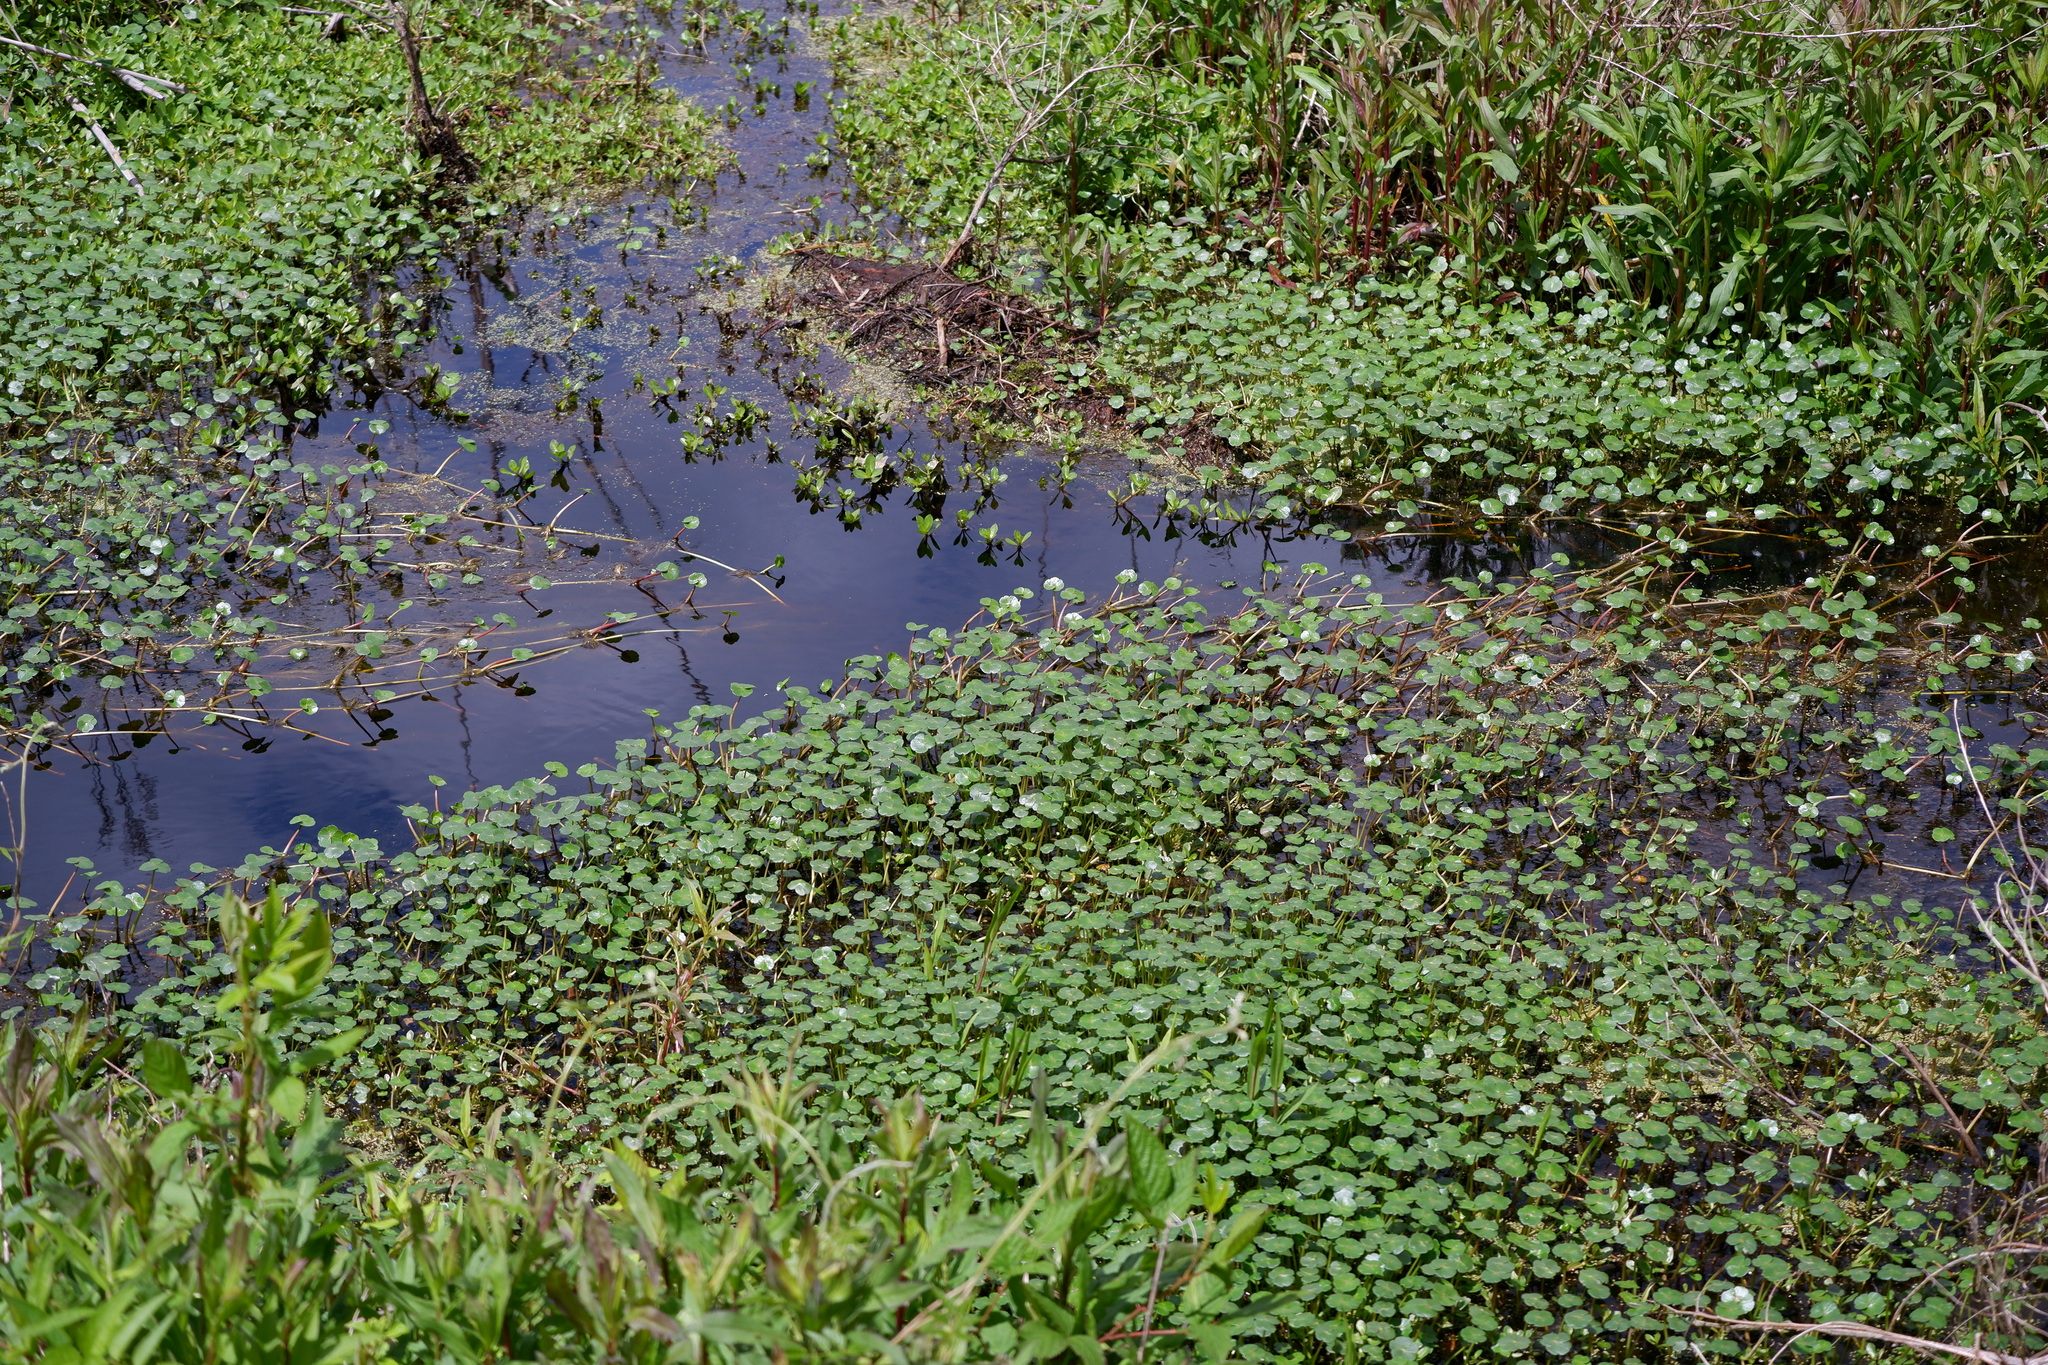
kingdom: Plantae
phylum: Tracheophyta
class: Magnoliopsida
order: Apiales
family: Araliaceae
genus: Hydrocotyle
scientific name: Hydrocotyle ranunculoides
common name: Floating pennywort
